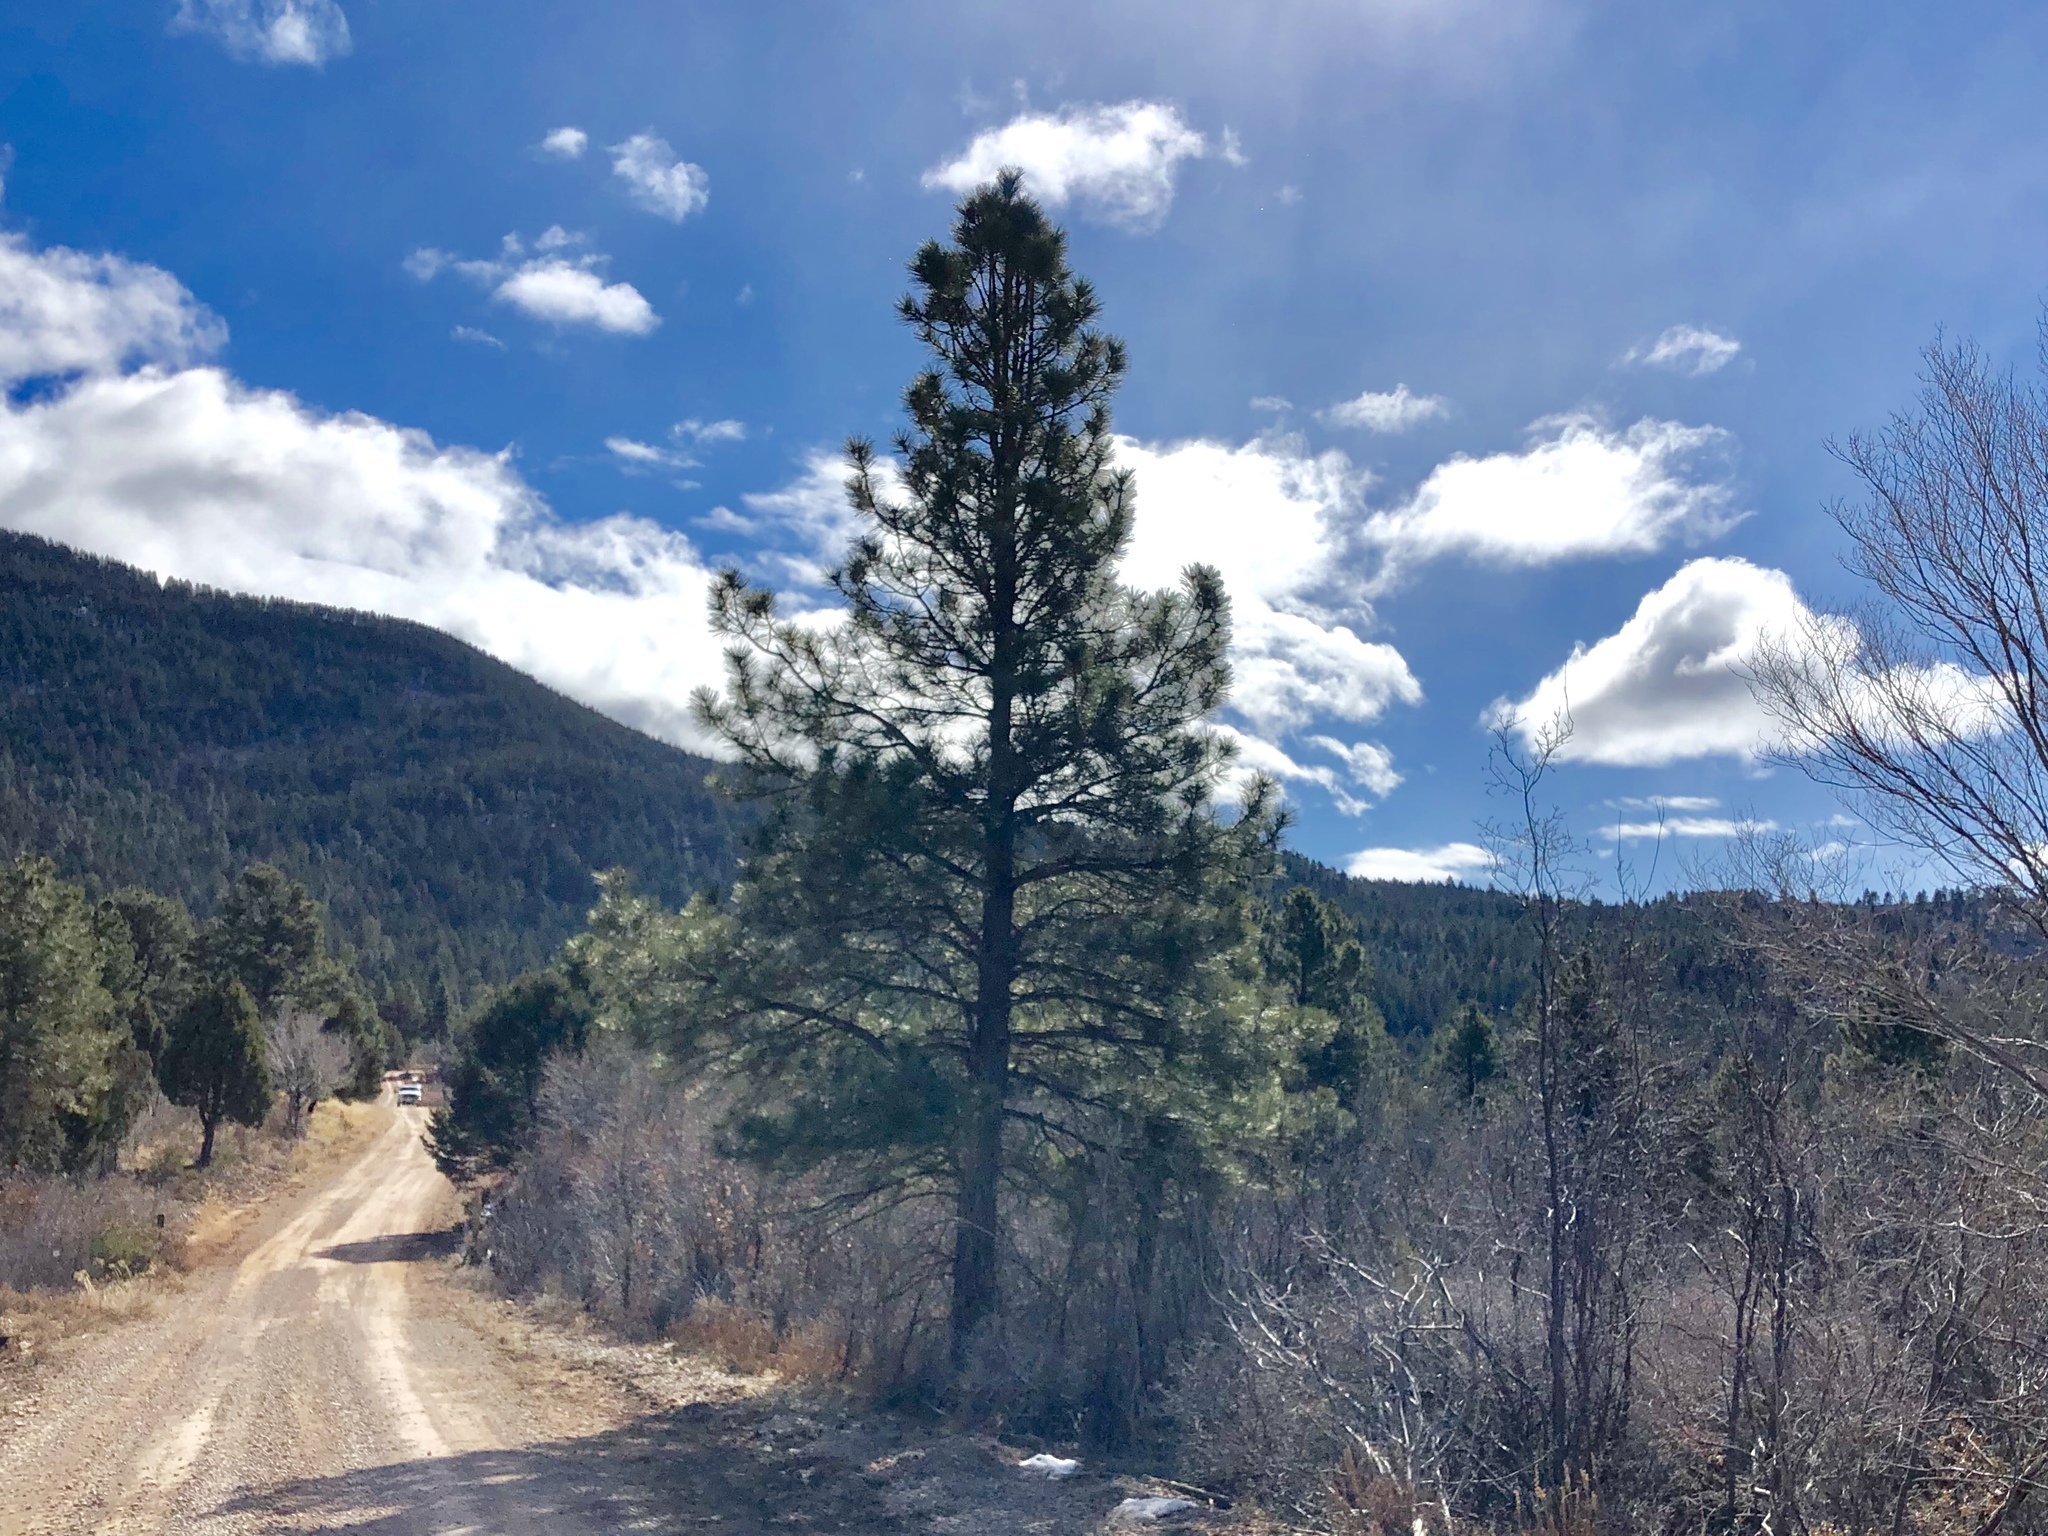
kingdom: Plantae
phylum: Tracheophyta
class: Pinopsida
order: Pinales
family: Pinaceae
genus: Pinus
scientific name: Pinus ponderosa
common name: Western yellow-pine
